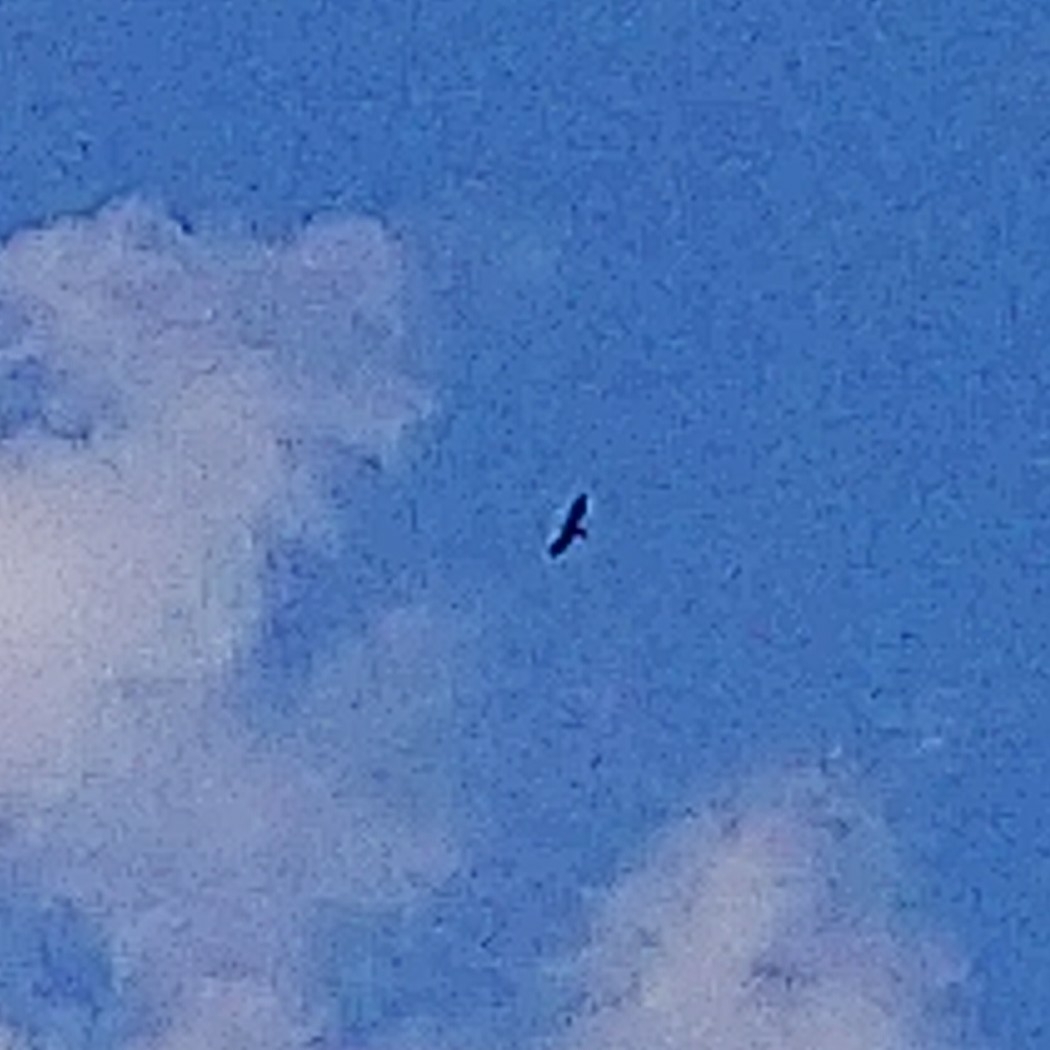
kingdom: Animalia
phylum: Chordata
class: Aves
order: Accipitriformes
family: Accipitridae
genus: Aquila
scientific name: Aquila verreauxii
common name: Verreaux's eagle
